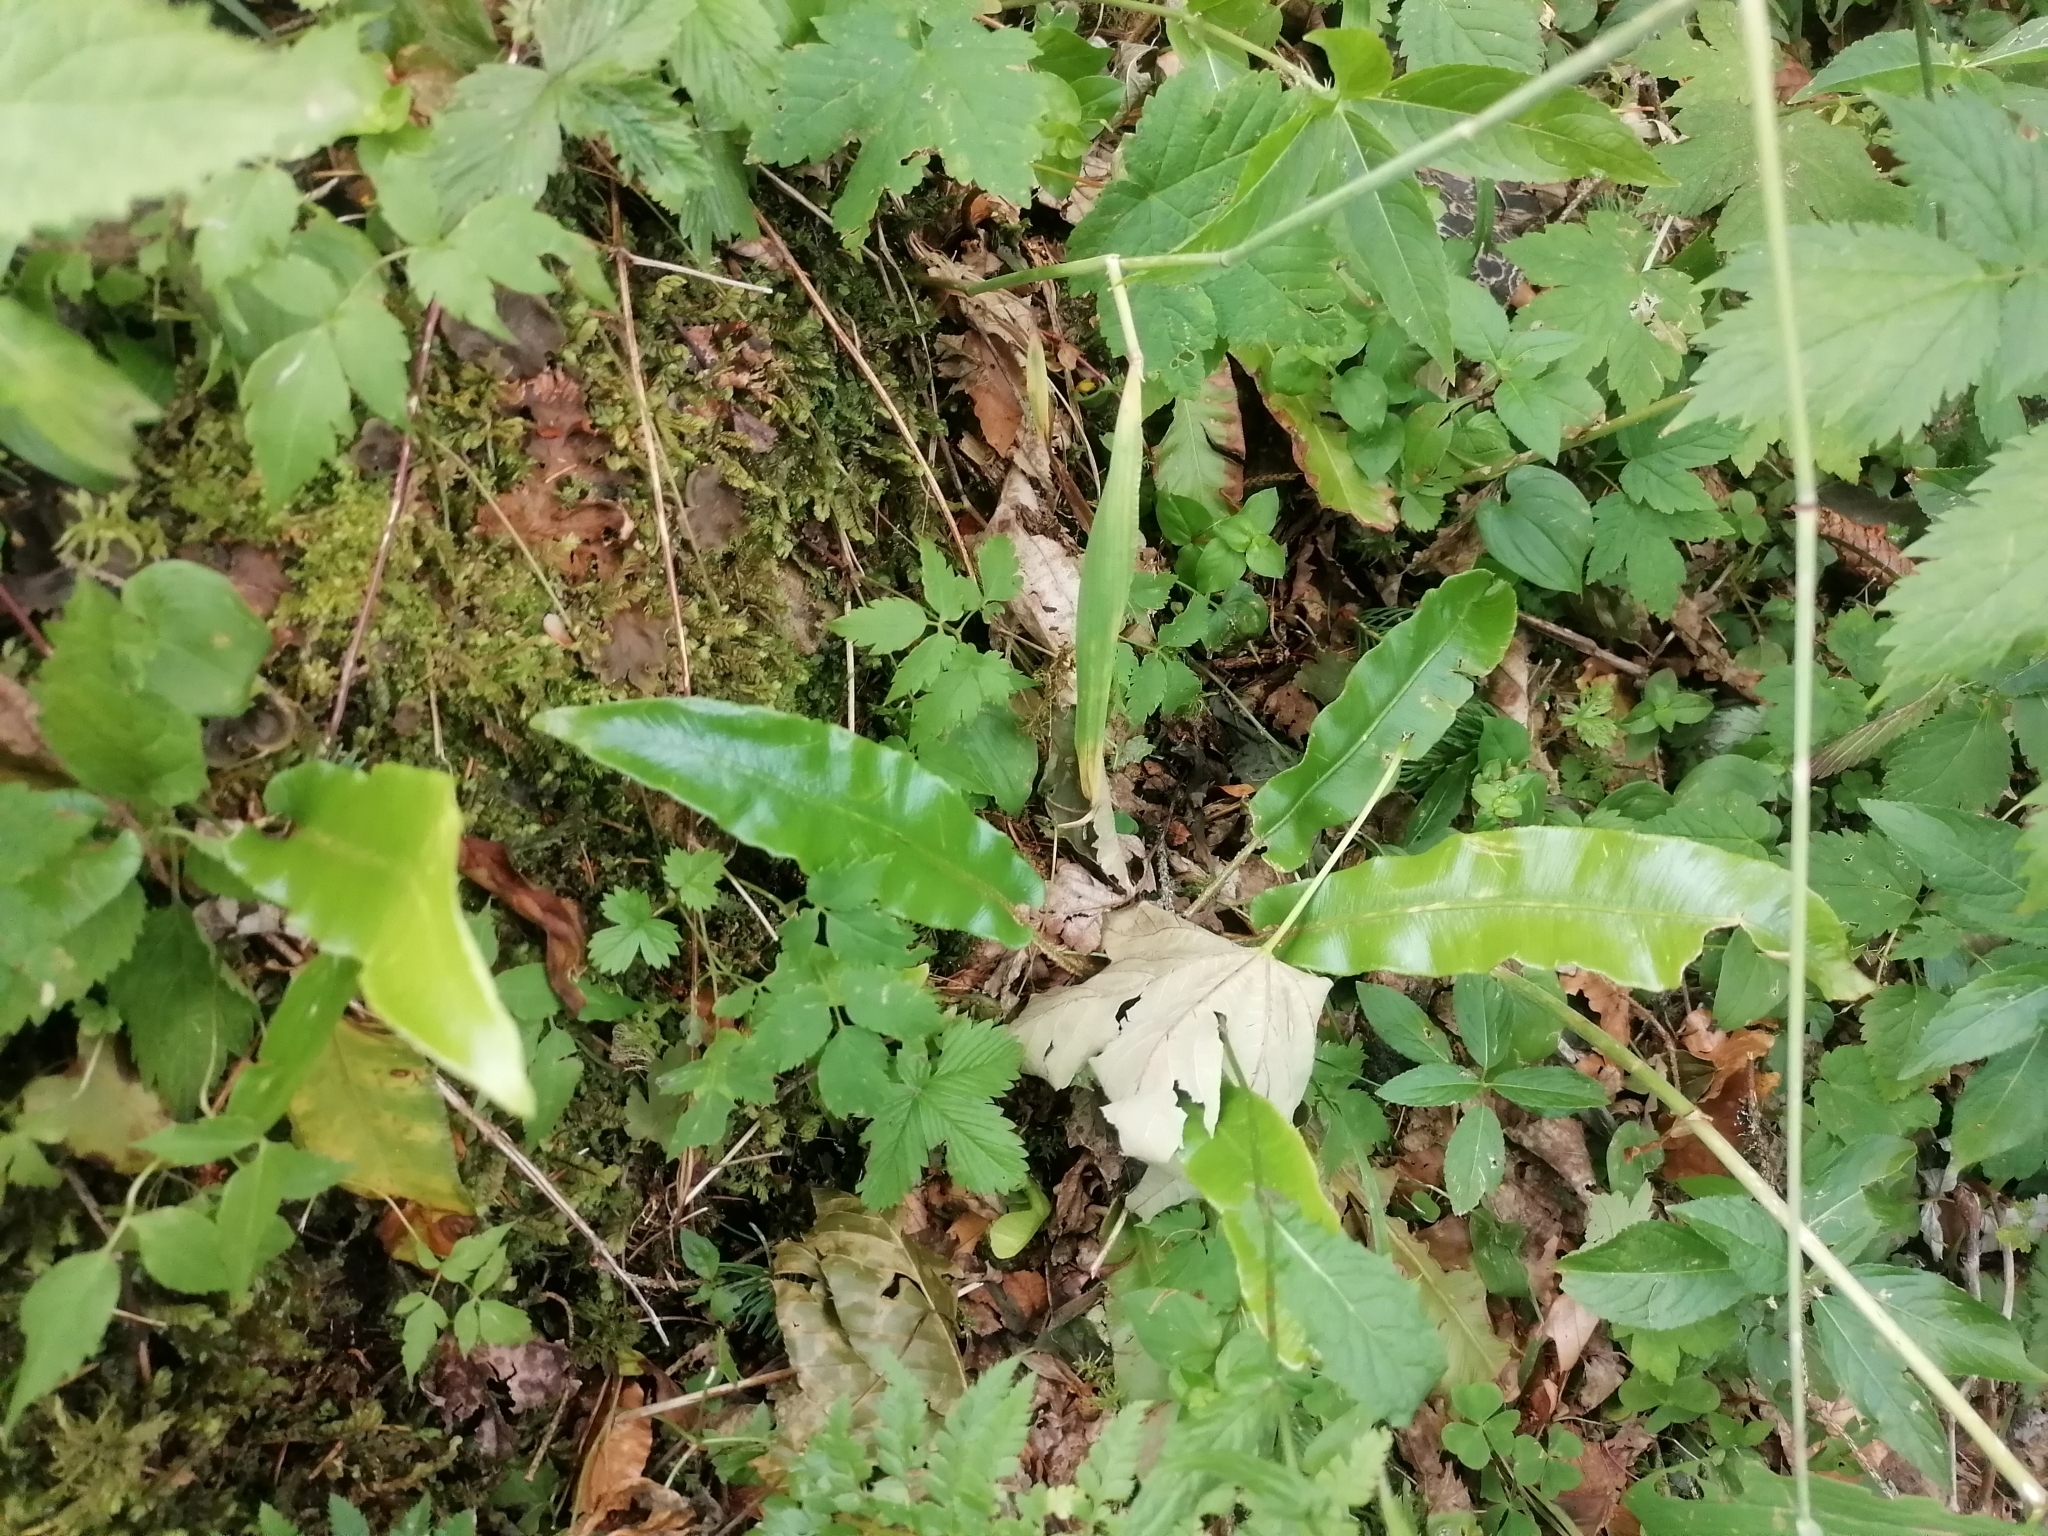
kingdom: Plantae
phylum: Tracheophyta
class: Polypodiopsida
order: Polypodiales
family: Aspleniaceae
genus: Asplenium
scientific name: Asplenium scolopendrium
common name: Hart's-tongue fern
